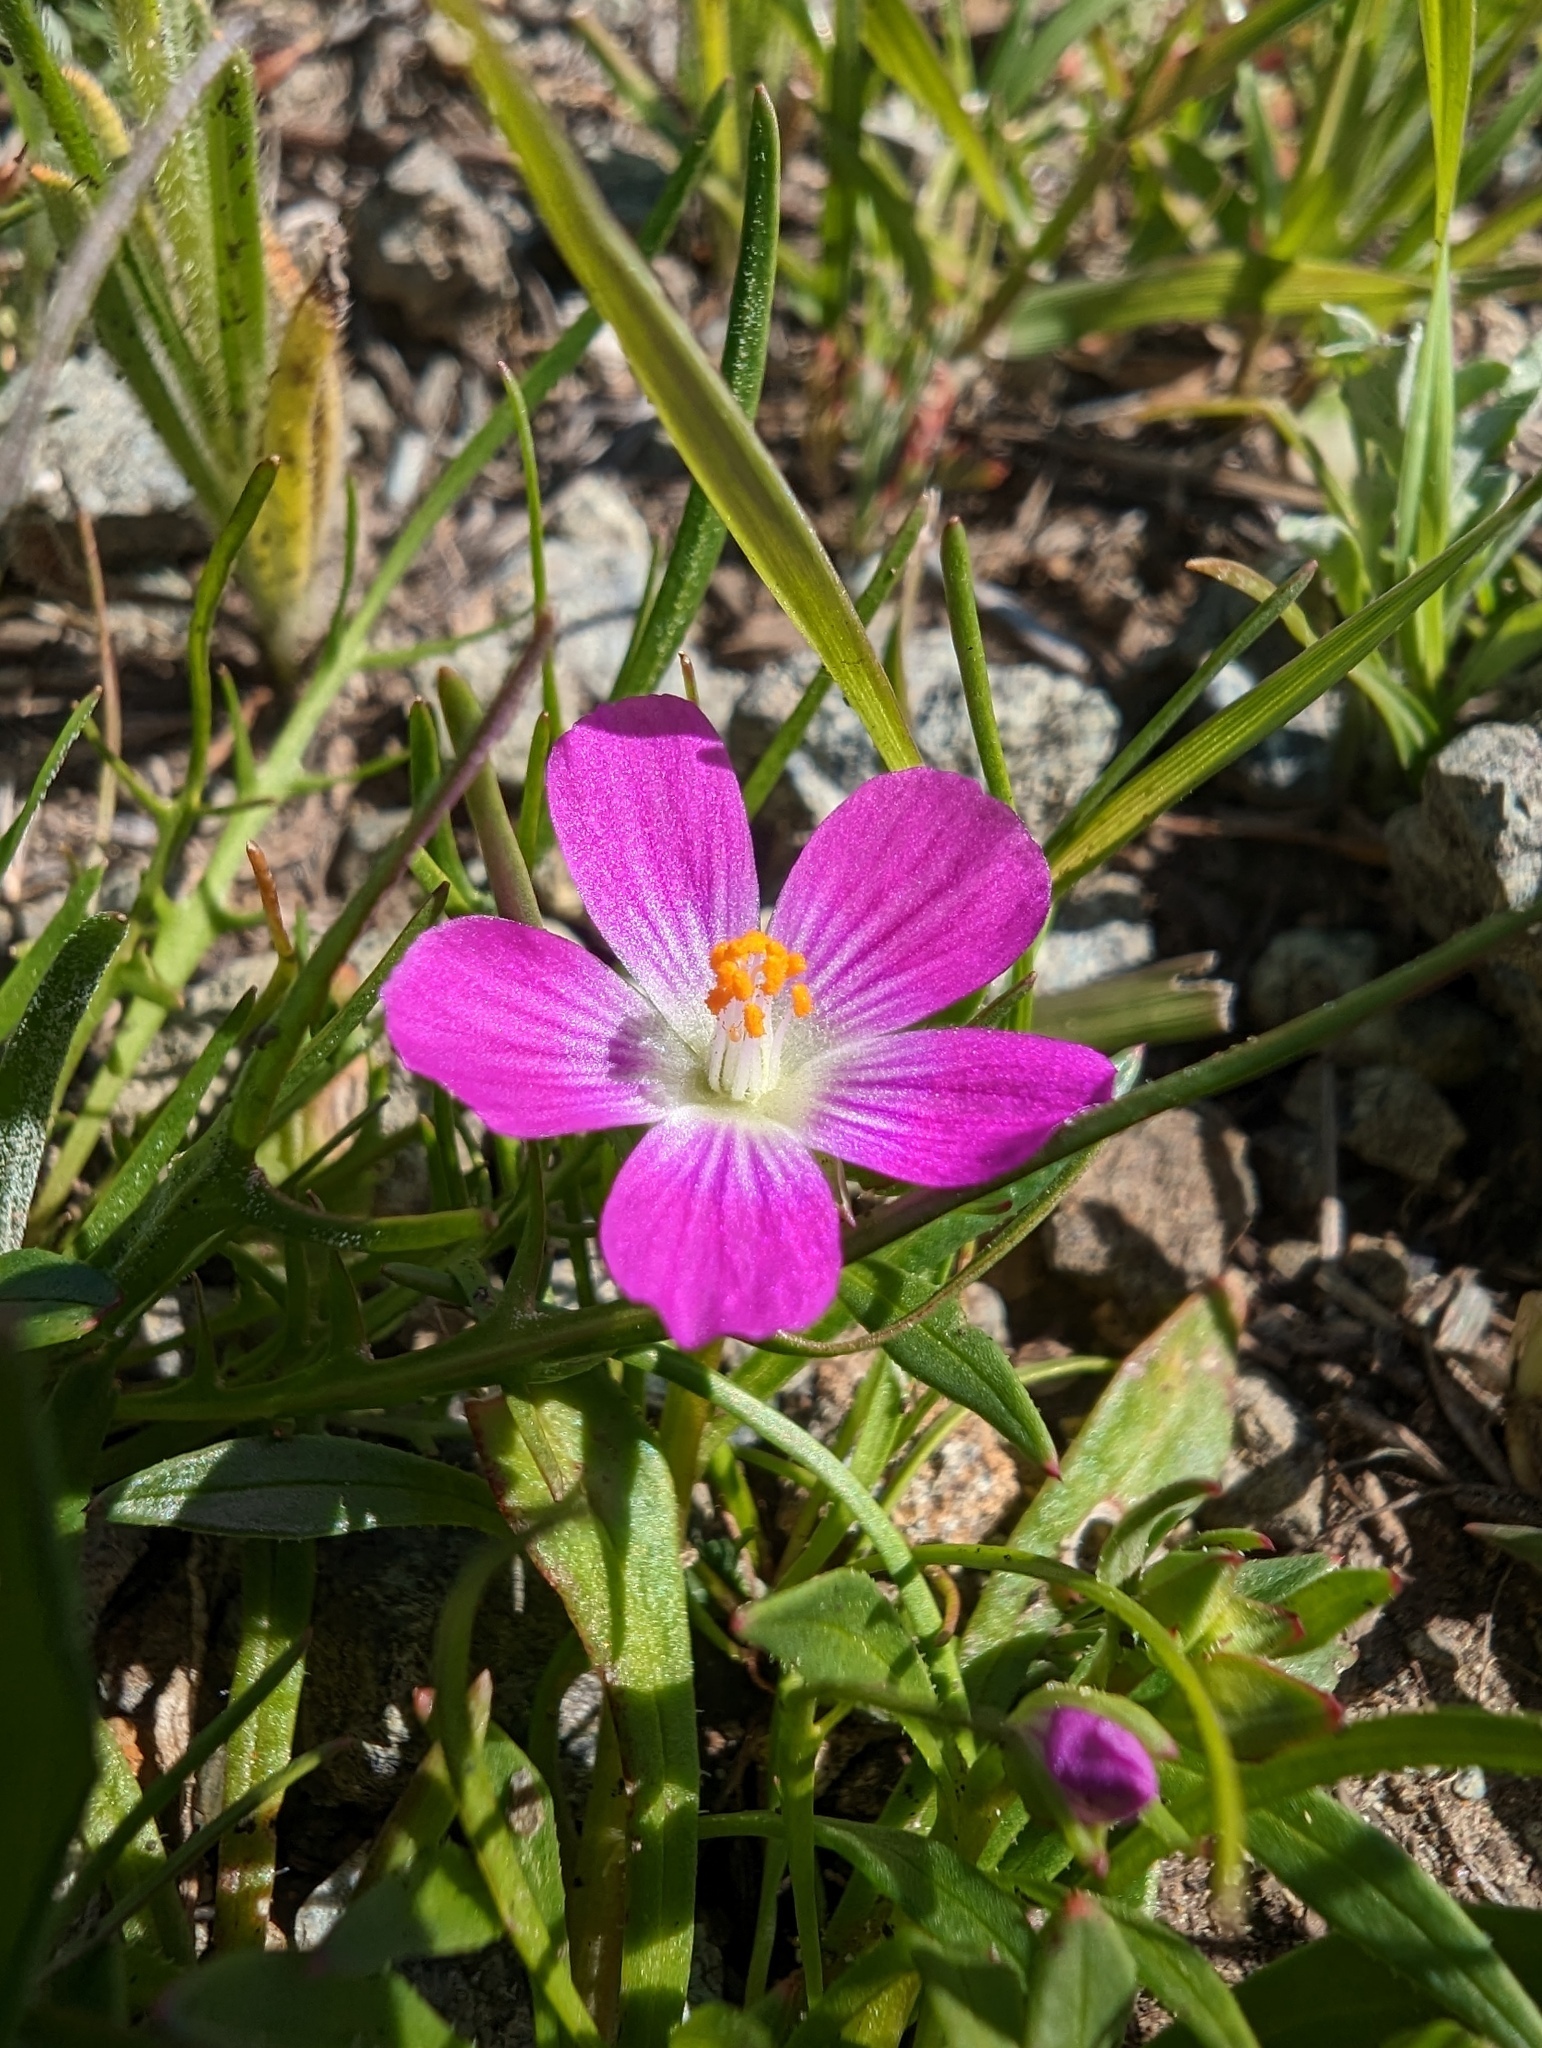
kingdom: Plantae
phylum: Tracheophyta
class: Magnoliopsida
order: Caryophyllales
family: Montiaceae
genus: Calandrinia
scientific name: Calandrinia menziesii
